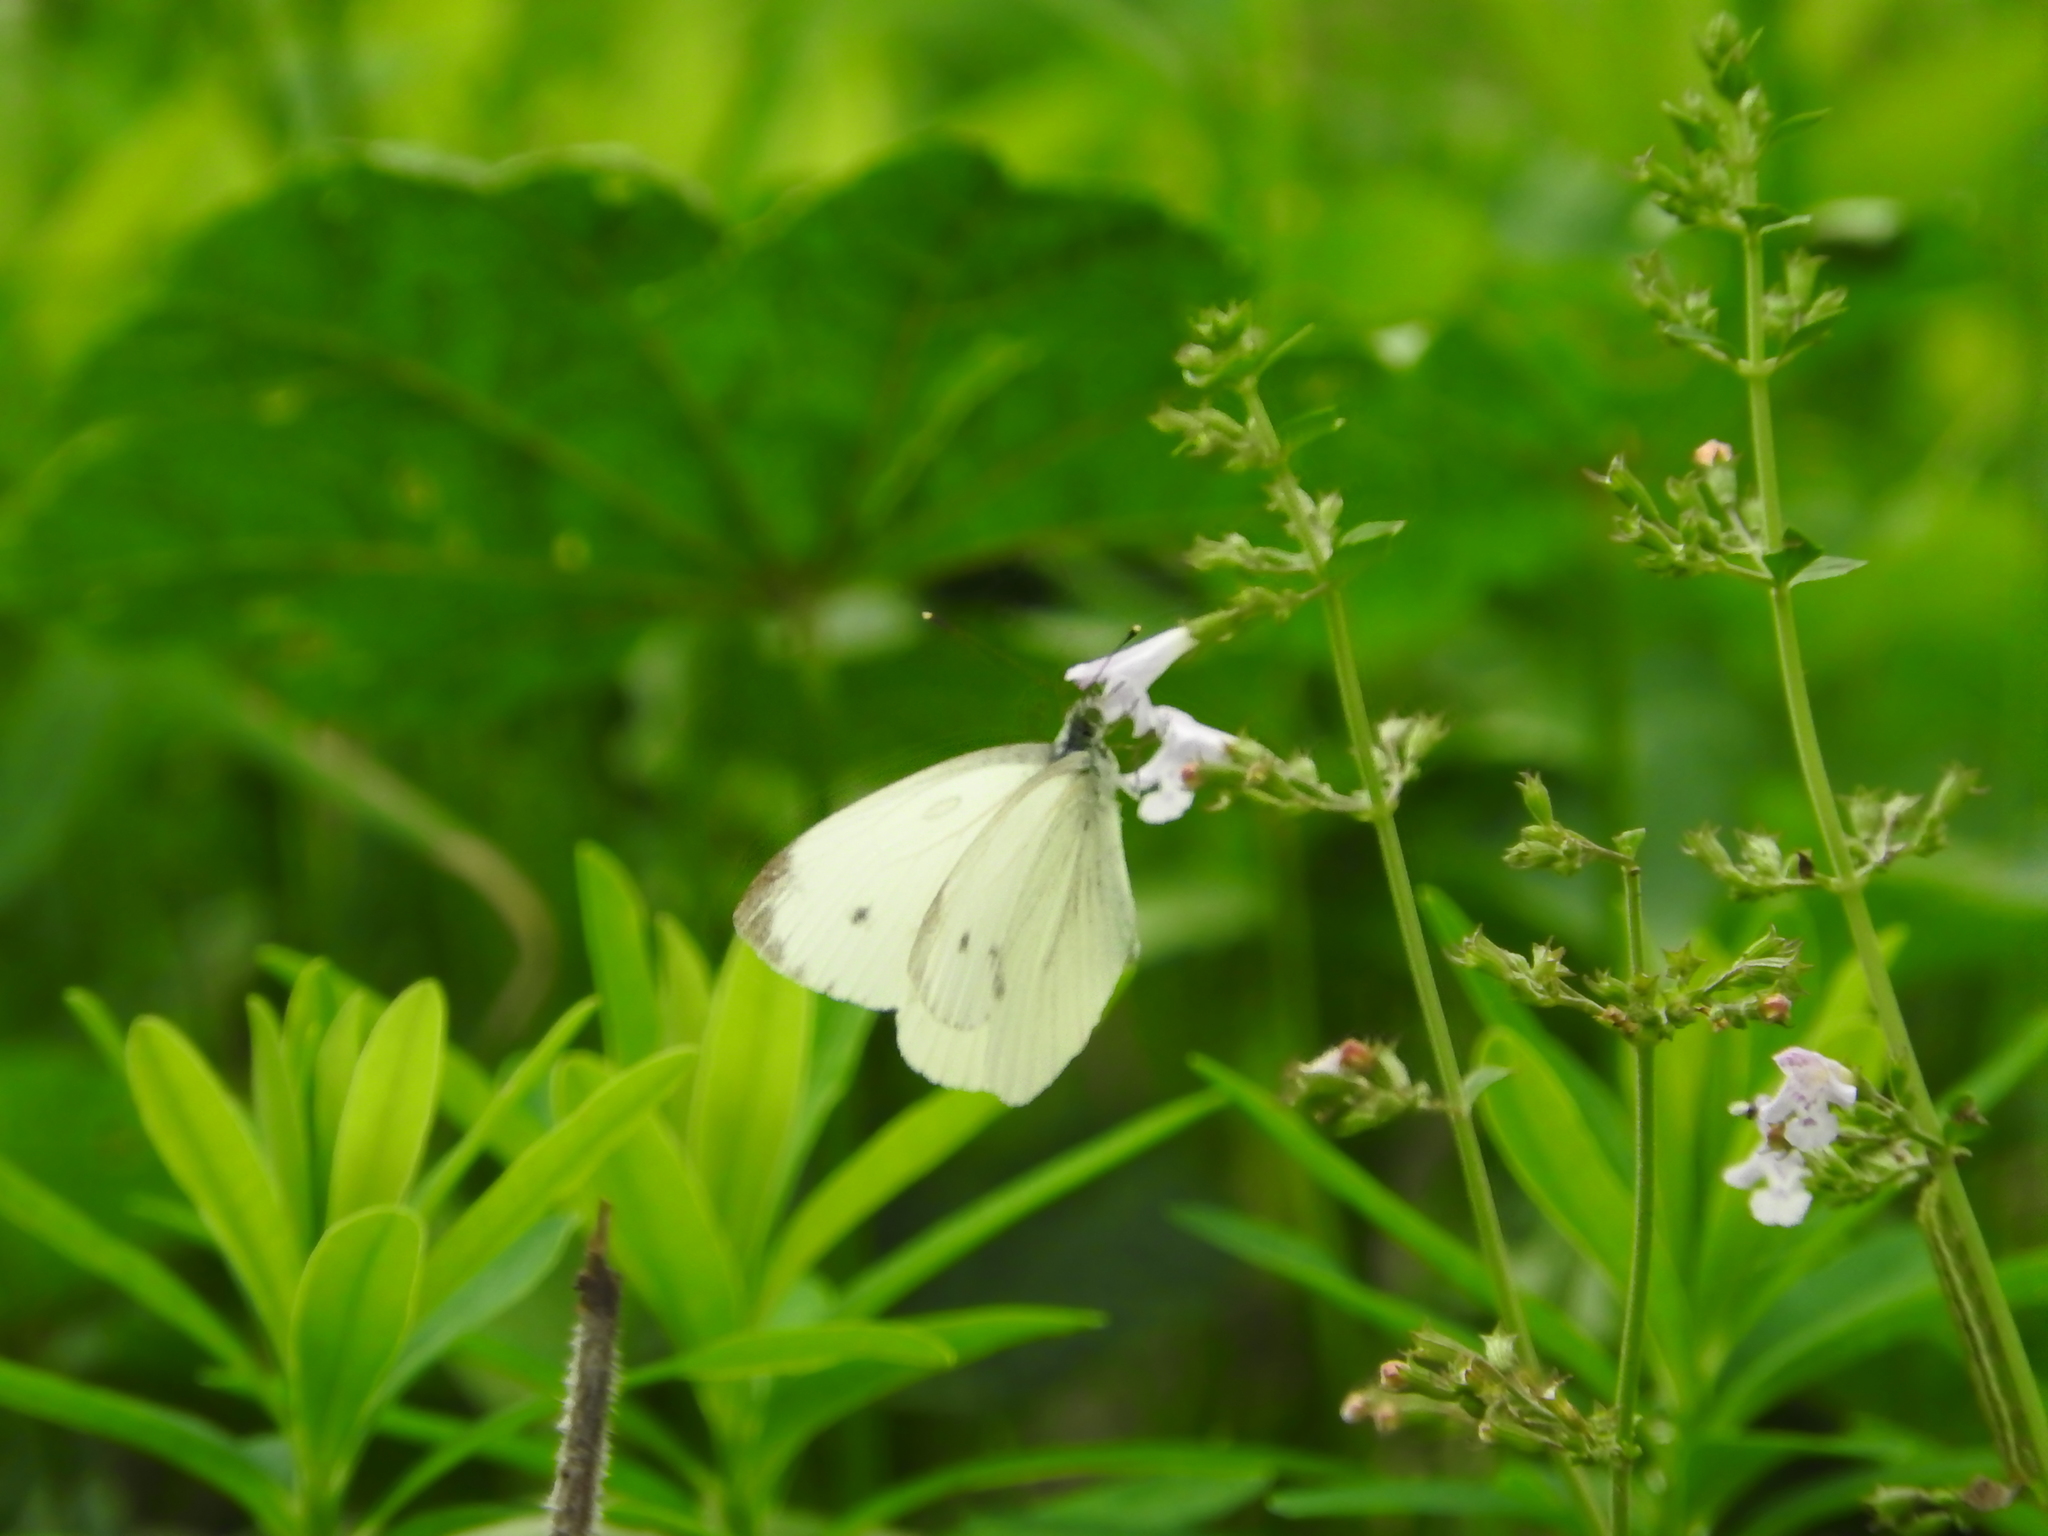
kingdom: Animalia
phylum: Arthropoda
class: Insecta
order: Lepidoptera
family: Pieridae
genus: Pieris
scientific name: Pieris napi
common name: Green-veined white
